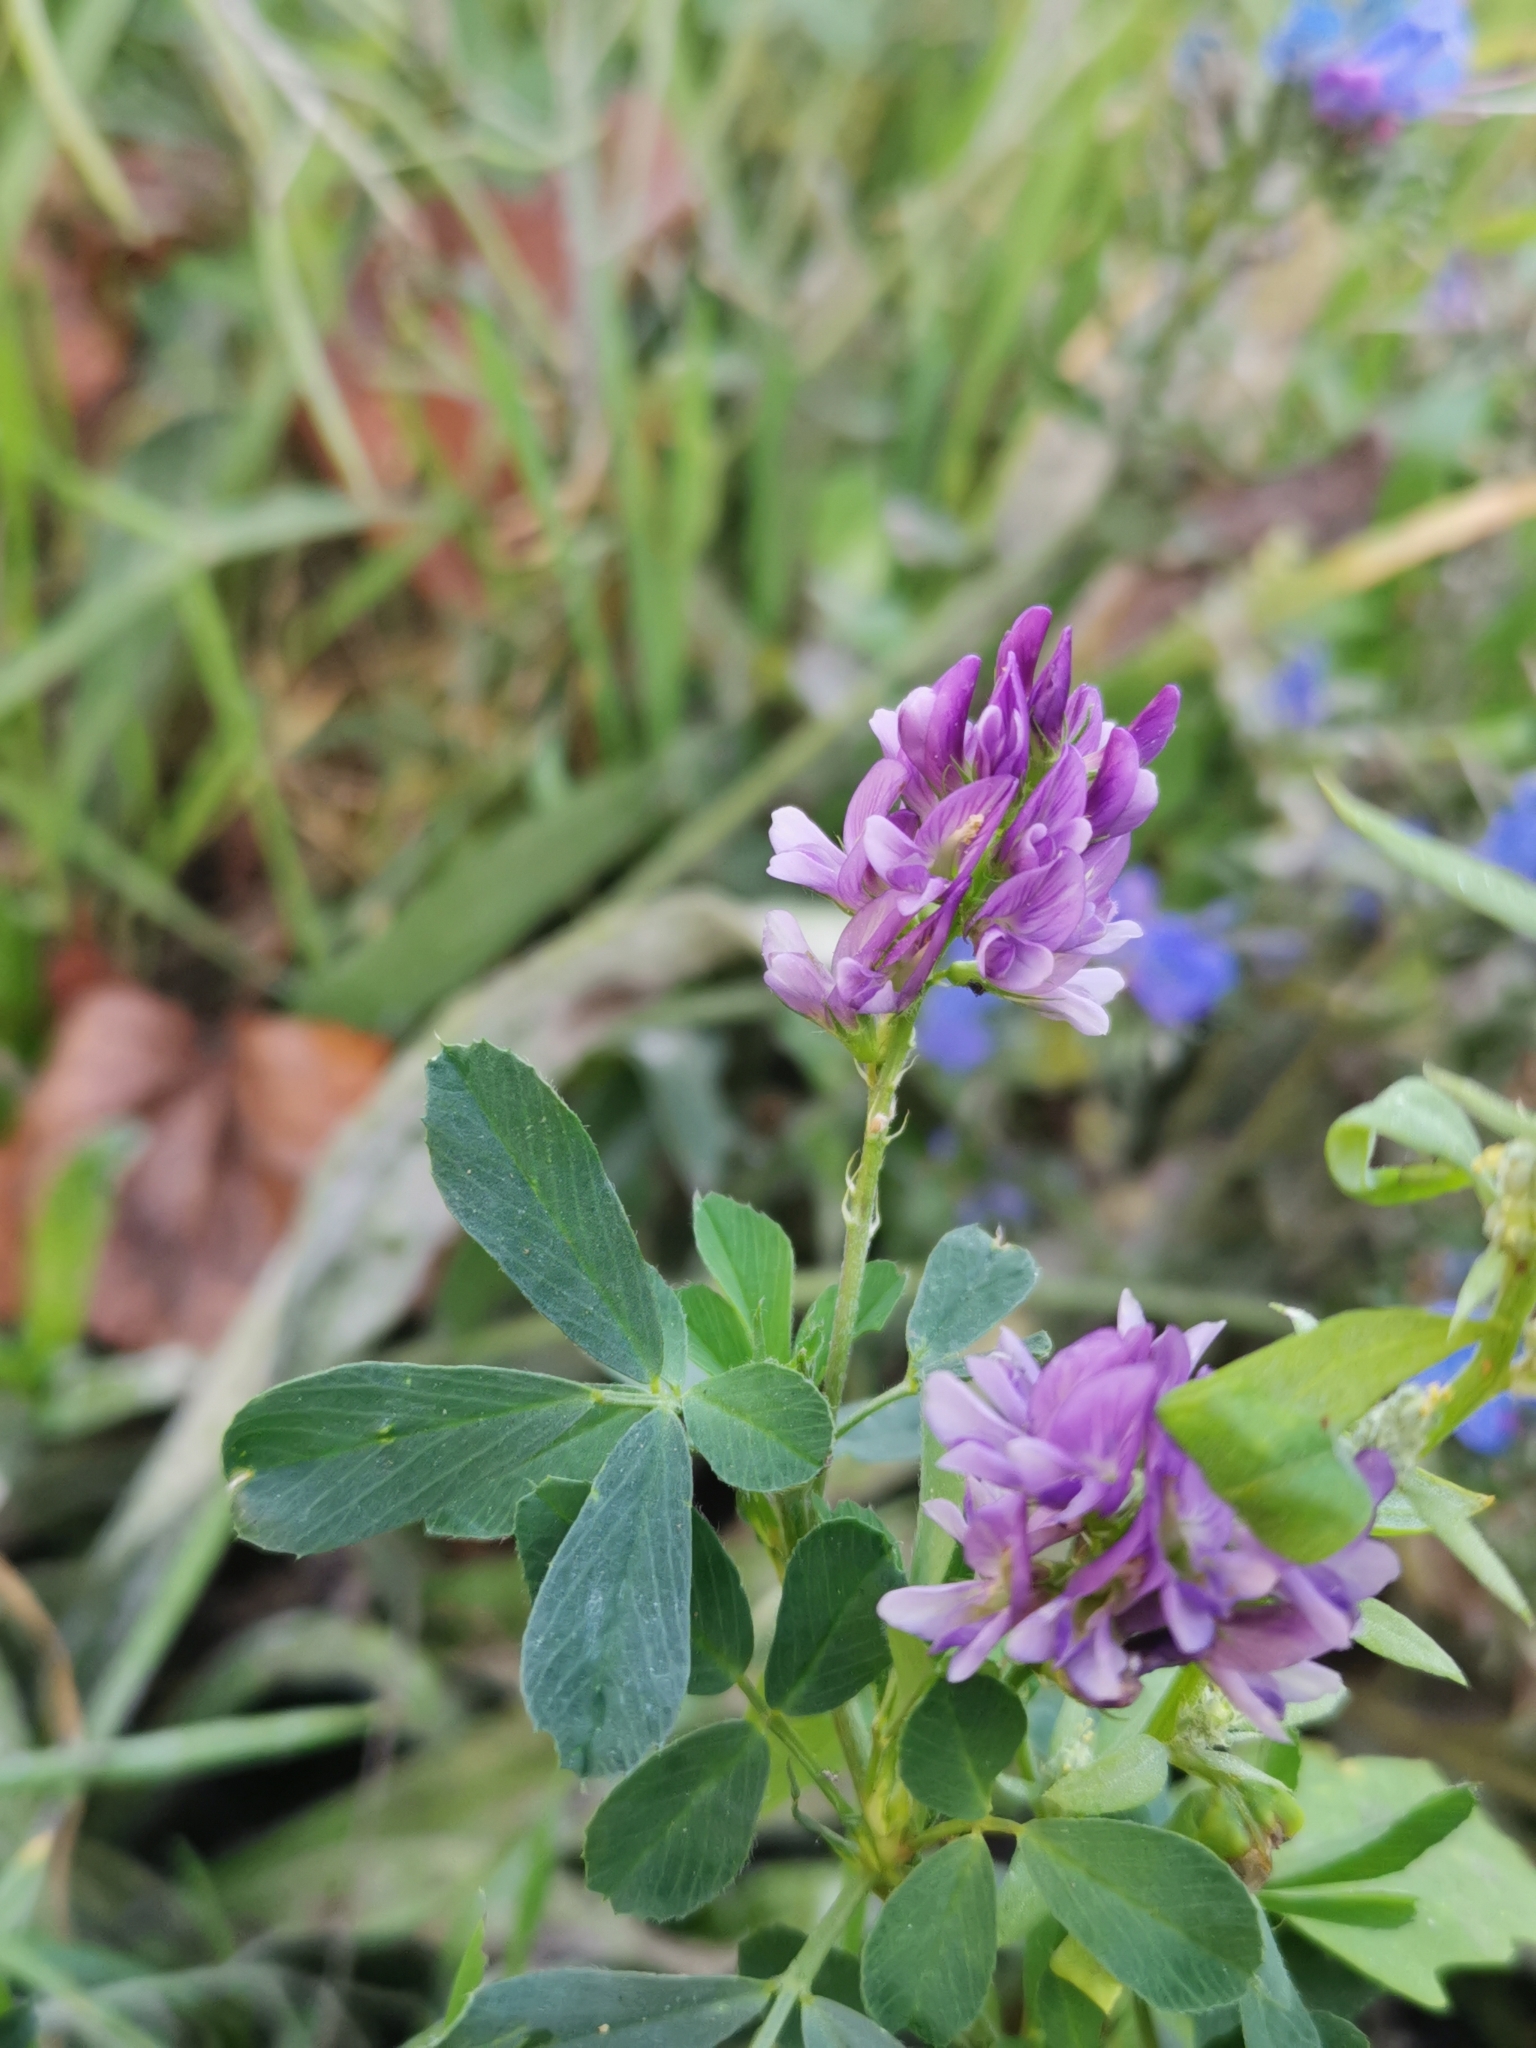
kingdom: Plantae
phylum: Tracheophyta
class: Magnoliopsida
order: Fabales
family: Fabaceae
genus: Medicago
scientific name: Medicago sativa
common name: Alfalfa
